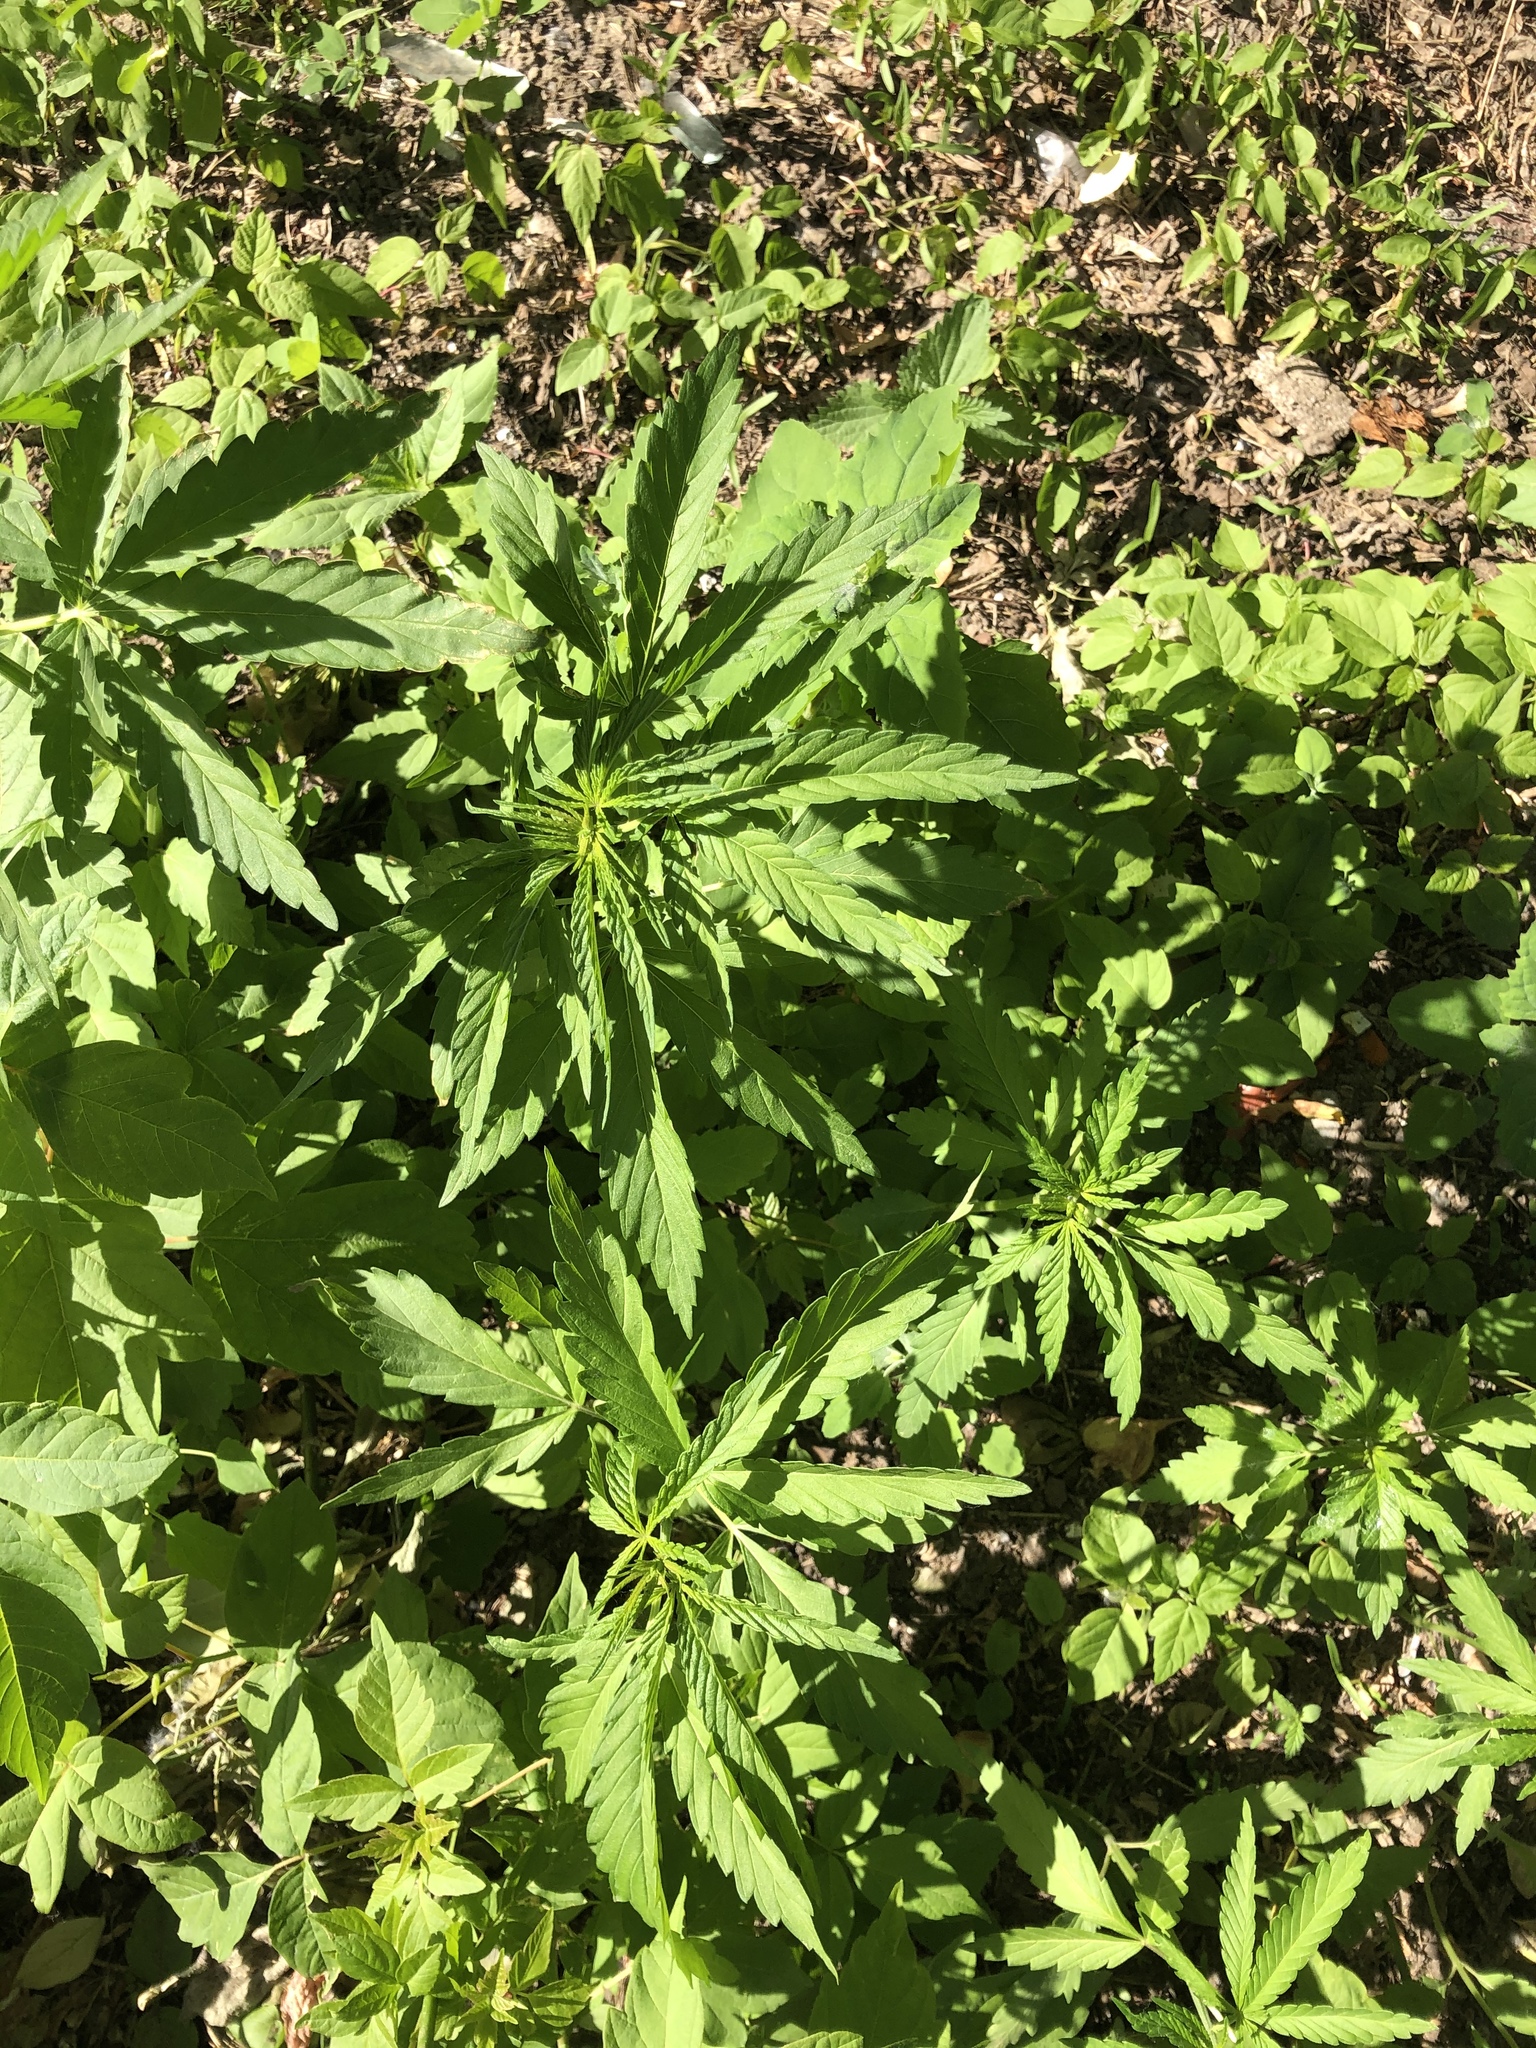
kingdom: Plantae
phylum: Tracheophyta
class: Magnoliopsida
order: Rosales
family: Cannabaceae
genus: Cannabis
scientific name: Cannabis sativa
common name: Hemp
